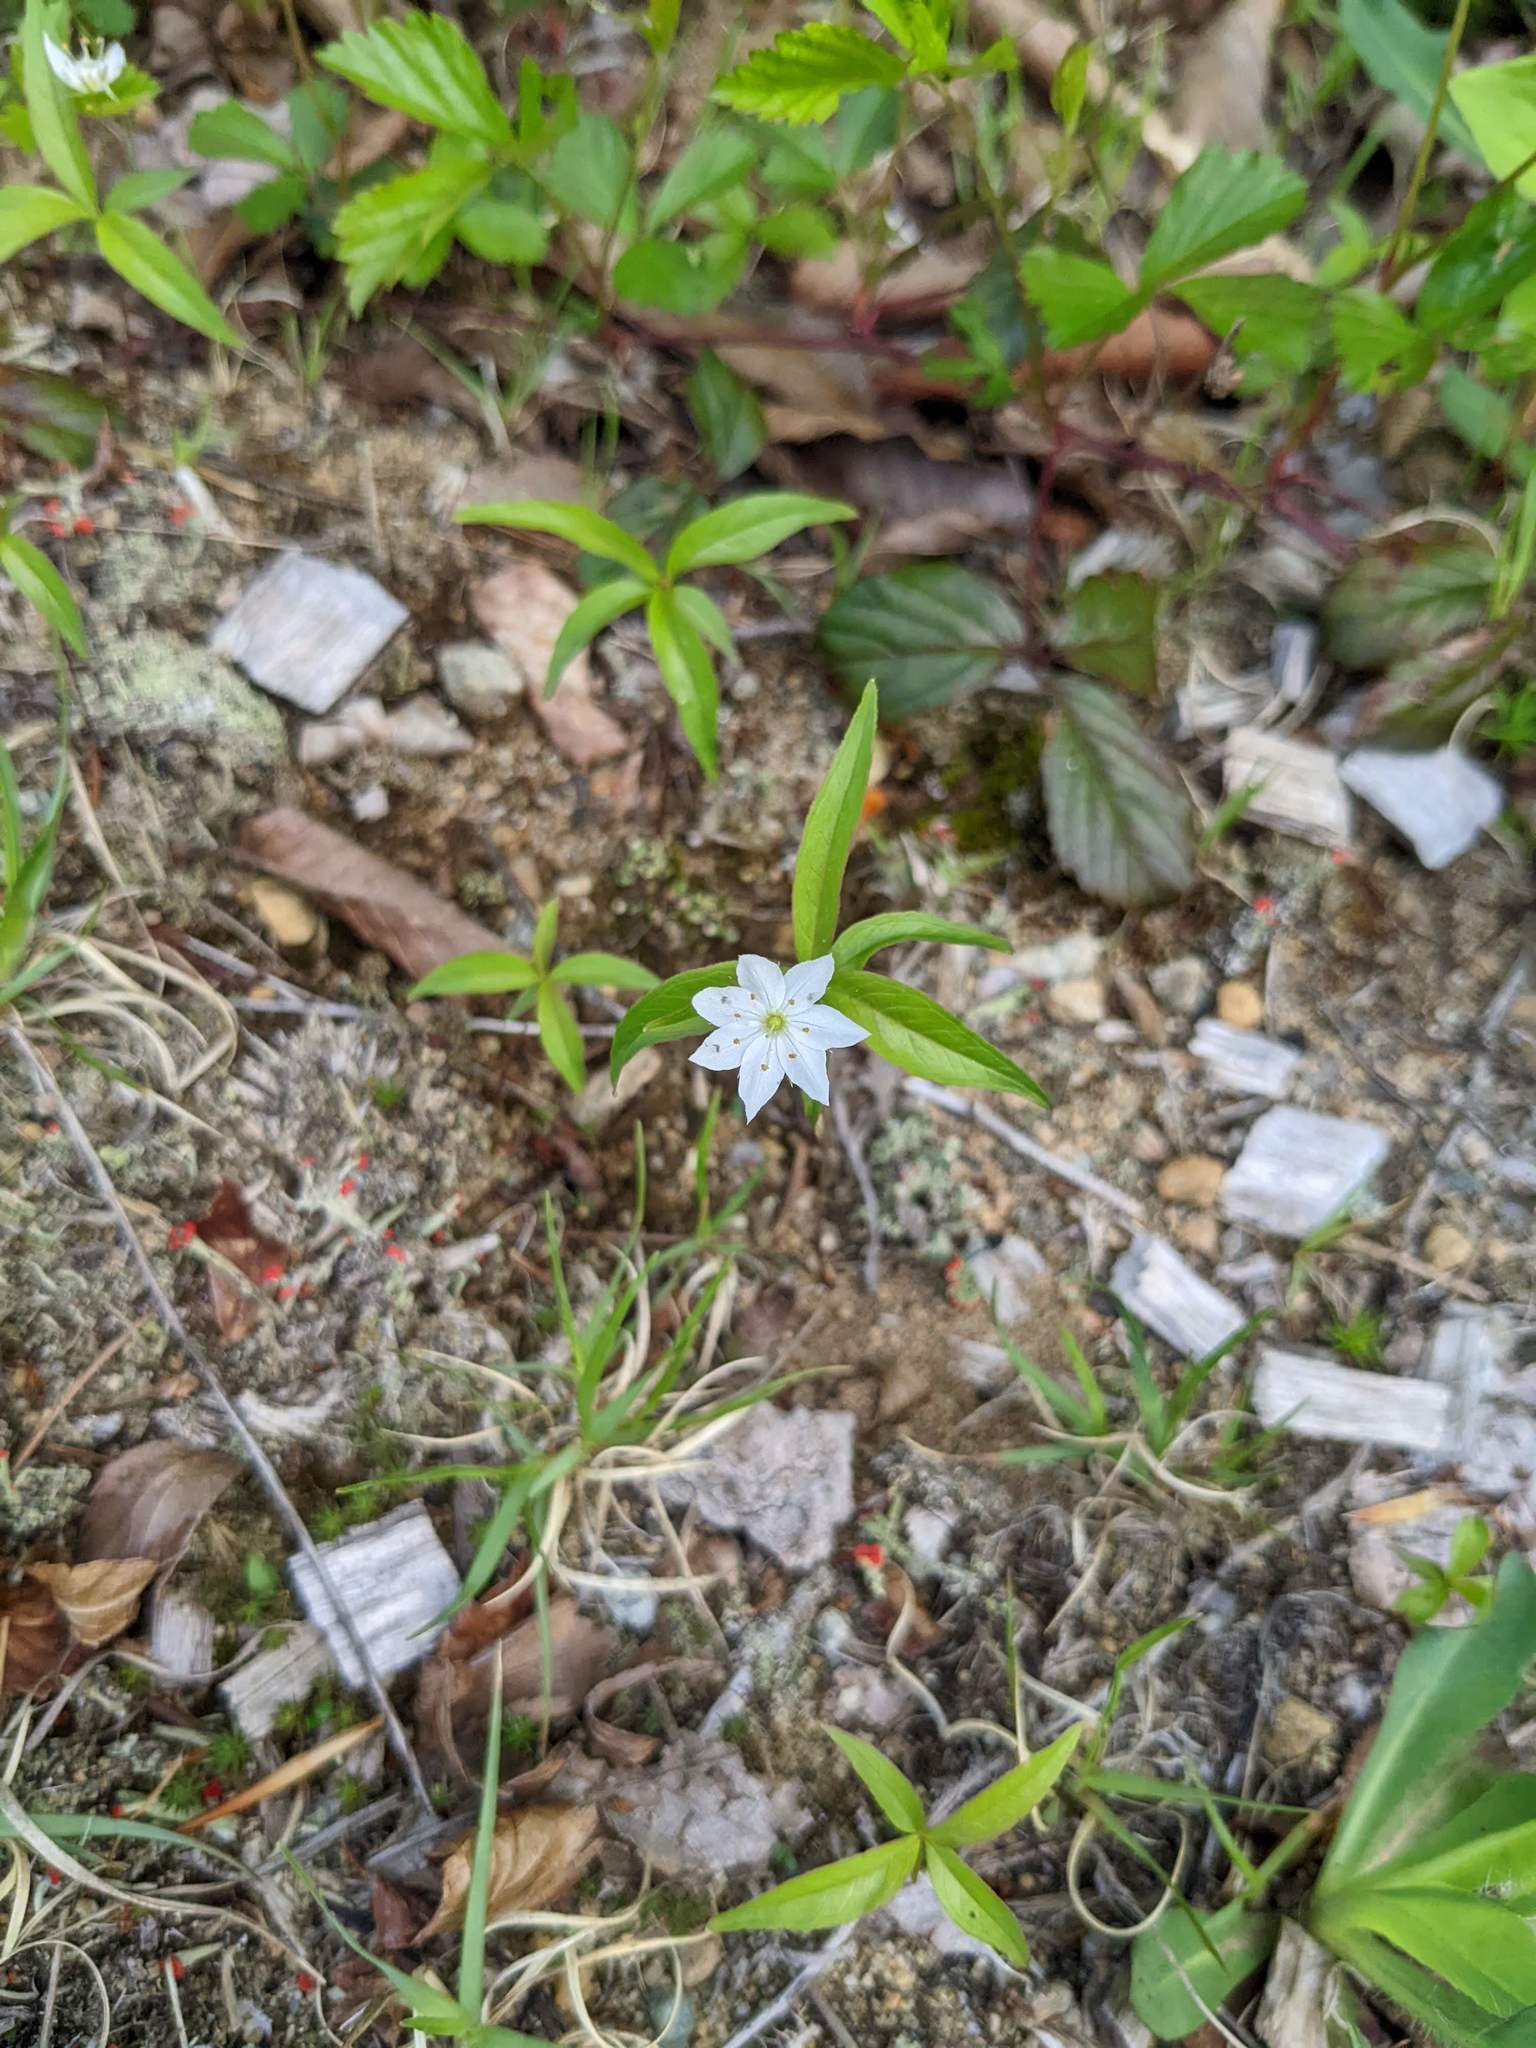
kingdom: Plantae
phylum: Tracheophyta
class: Magnoliopsida
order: Ericales
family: Primulaceae
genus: Lysimachia
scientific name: Lysimachia borealis
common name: American starflower
